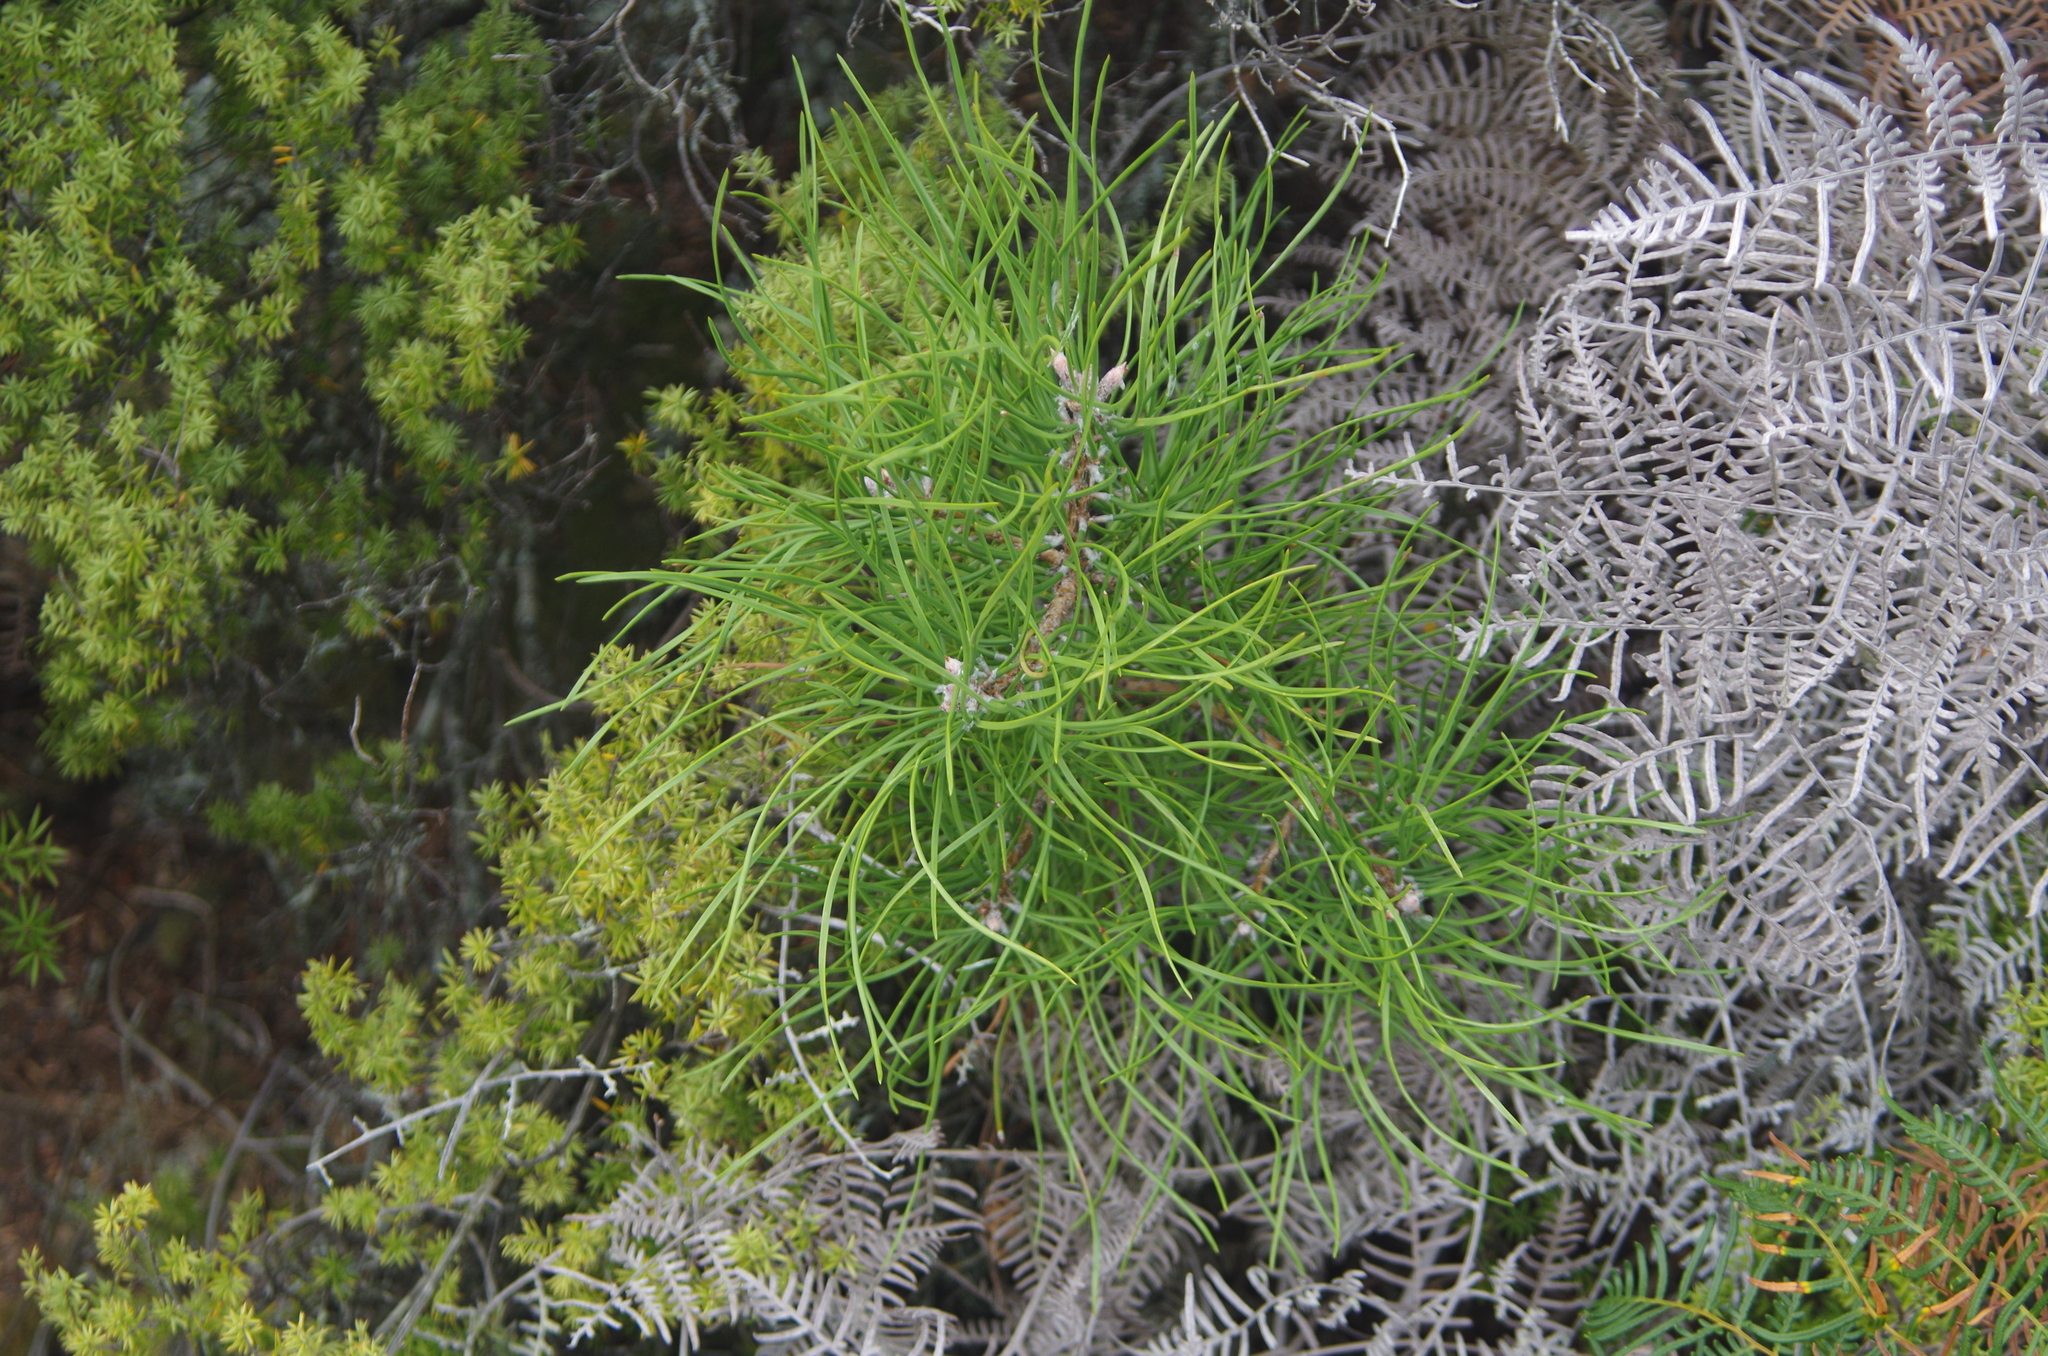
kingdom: Plantae
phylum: Tracheophyta
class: Pinopsida
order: Pinales
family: Pinaceae
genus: Pinus
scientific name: Pinus nigra
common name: Austrian pine
